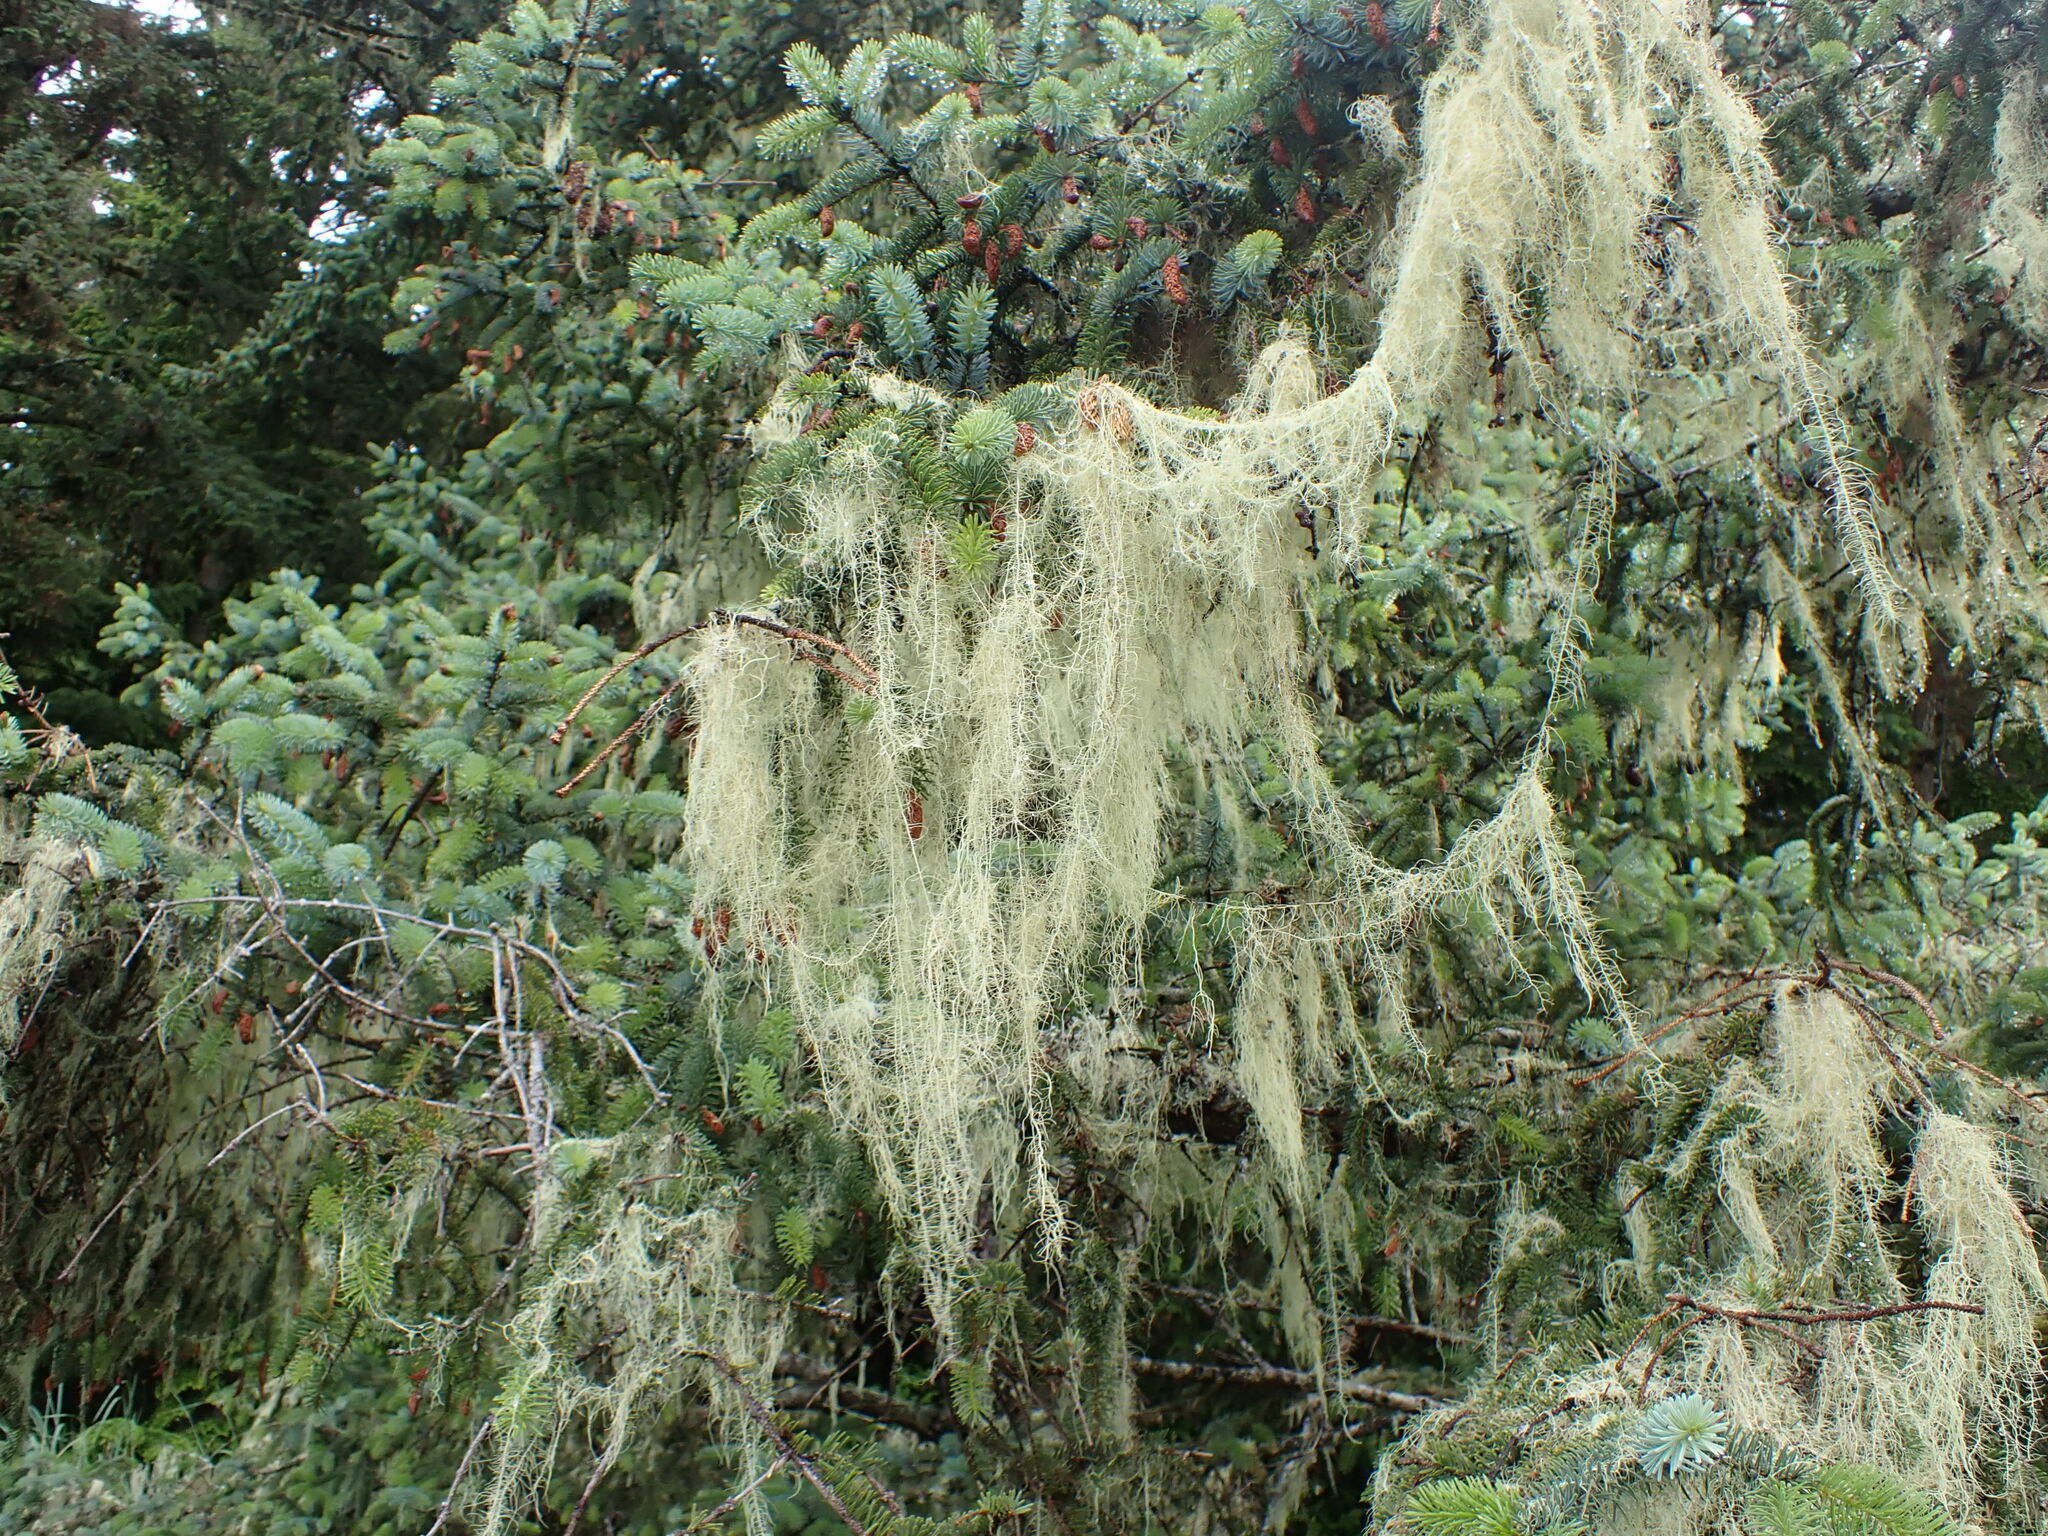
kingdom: Fungi
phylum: Ascomycota
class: Lecanoromycetes
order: Lecanorales
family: Parmeliaceae
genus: Dolichousnea
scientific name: Dolichousnea longissima
